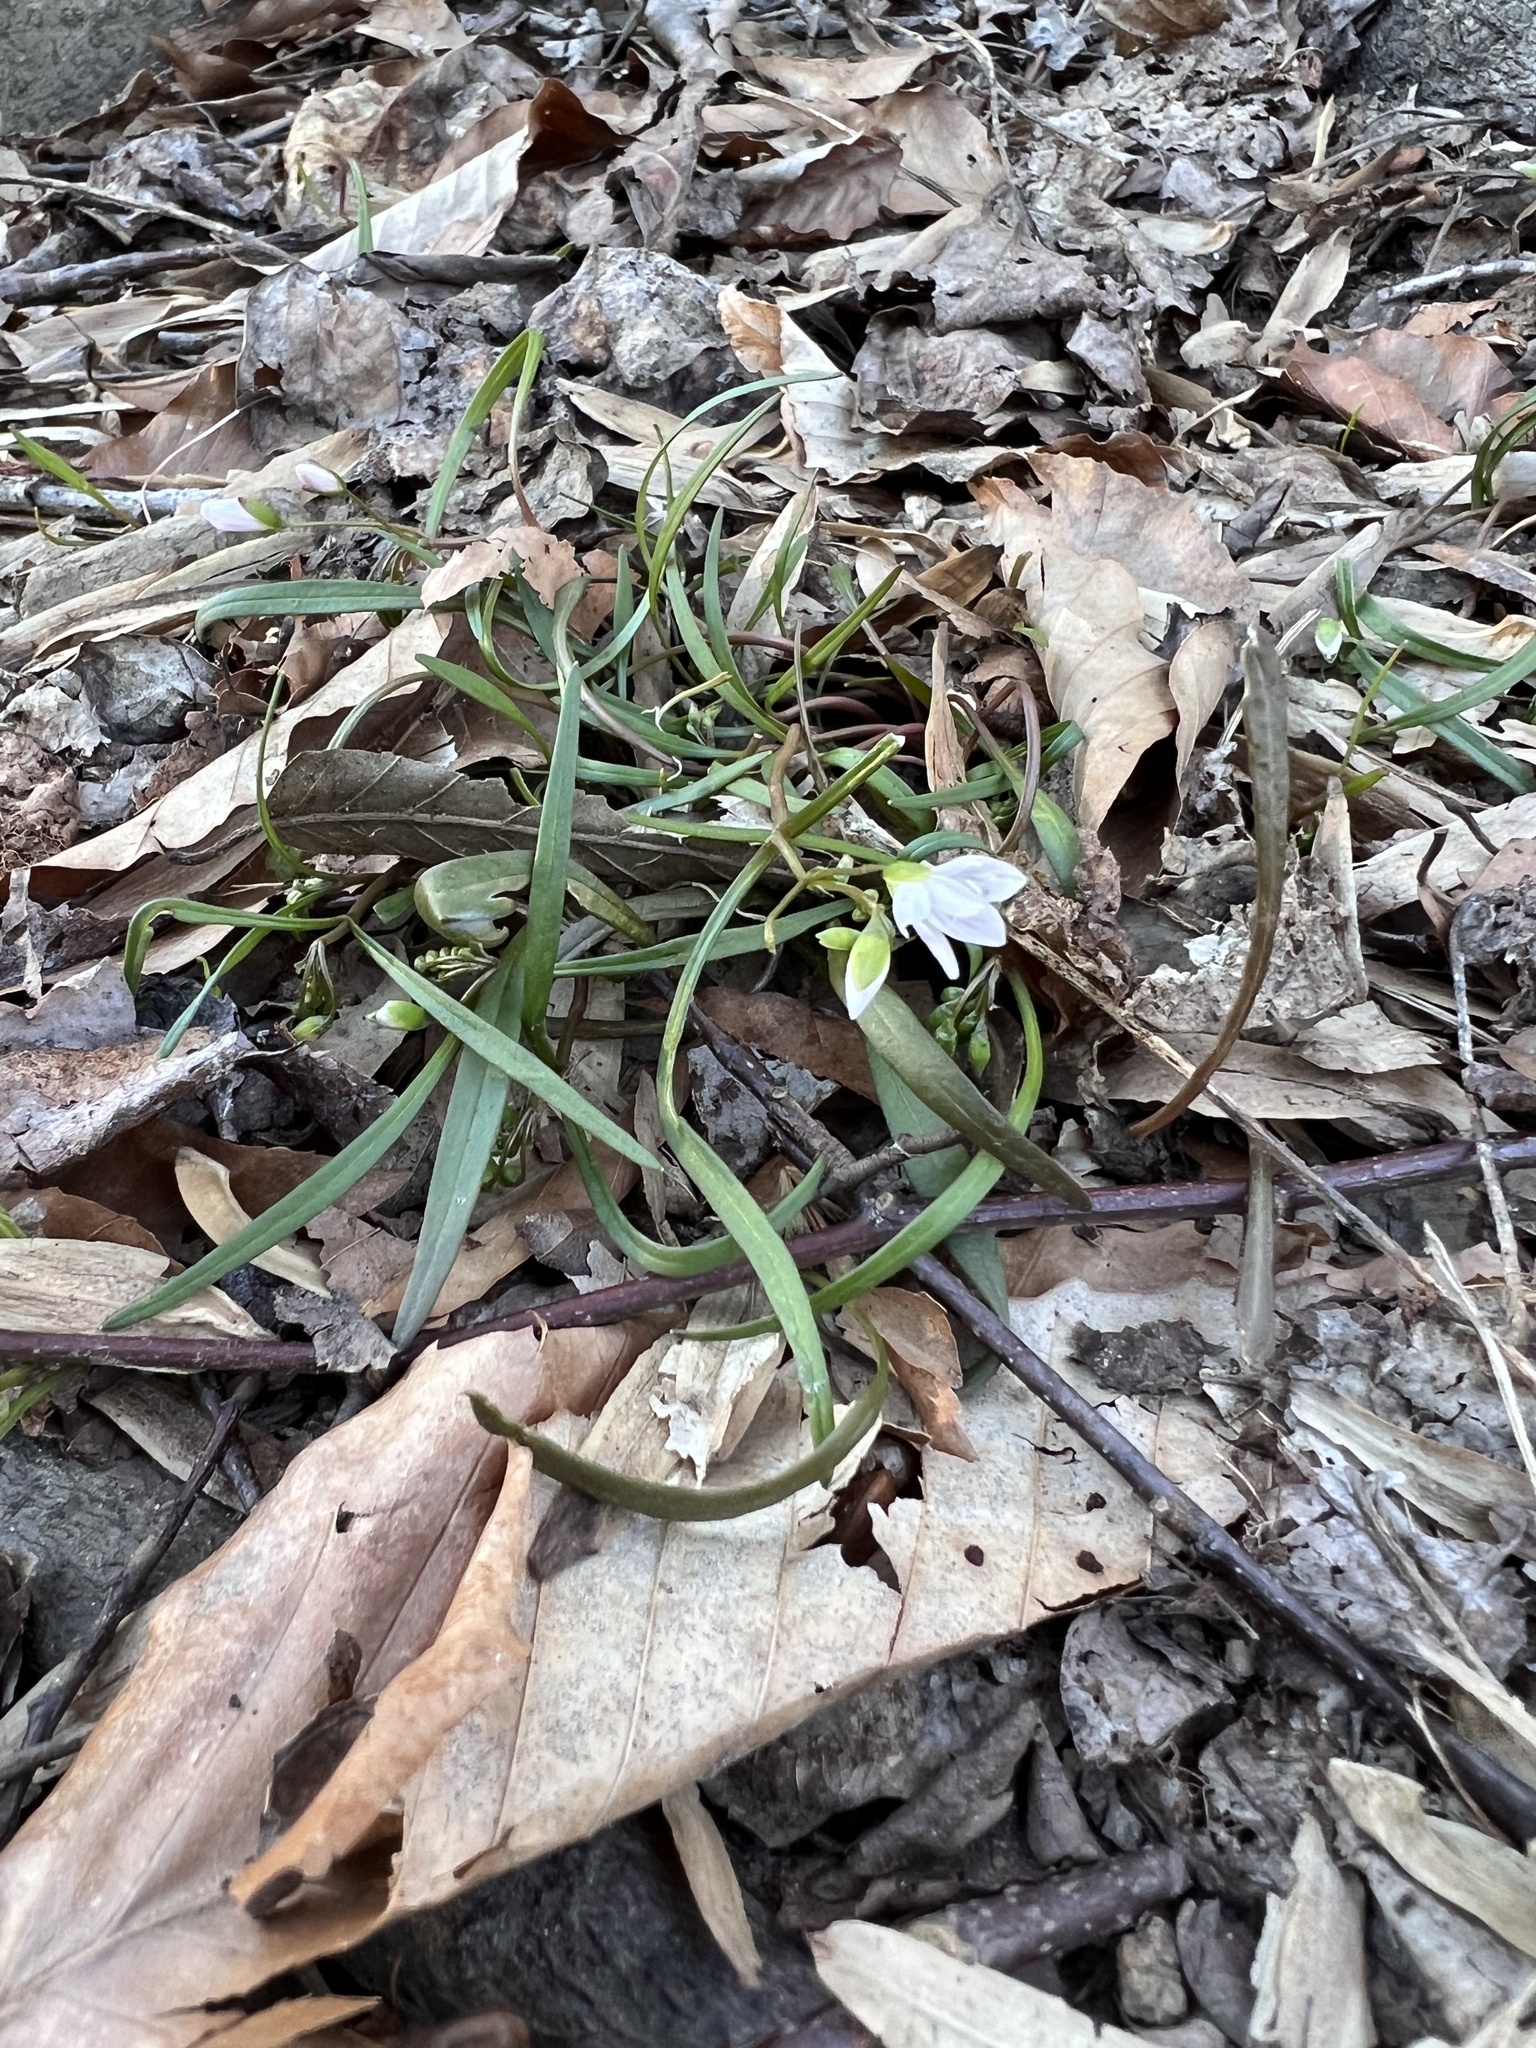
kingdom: Plantae
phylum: Tracheophyta
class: Magnoliopsida
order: Caryophyllales
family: Montiaceae
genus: Claytonia
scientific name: Claytonia virginica
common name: Virginia springbeauty
